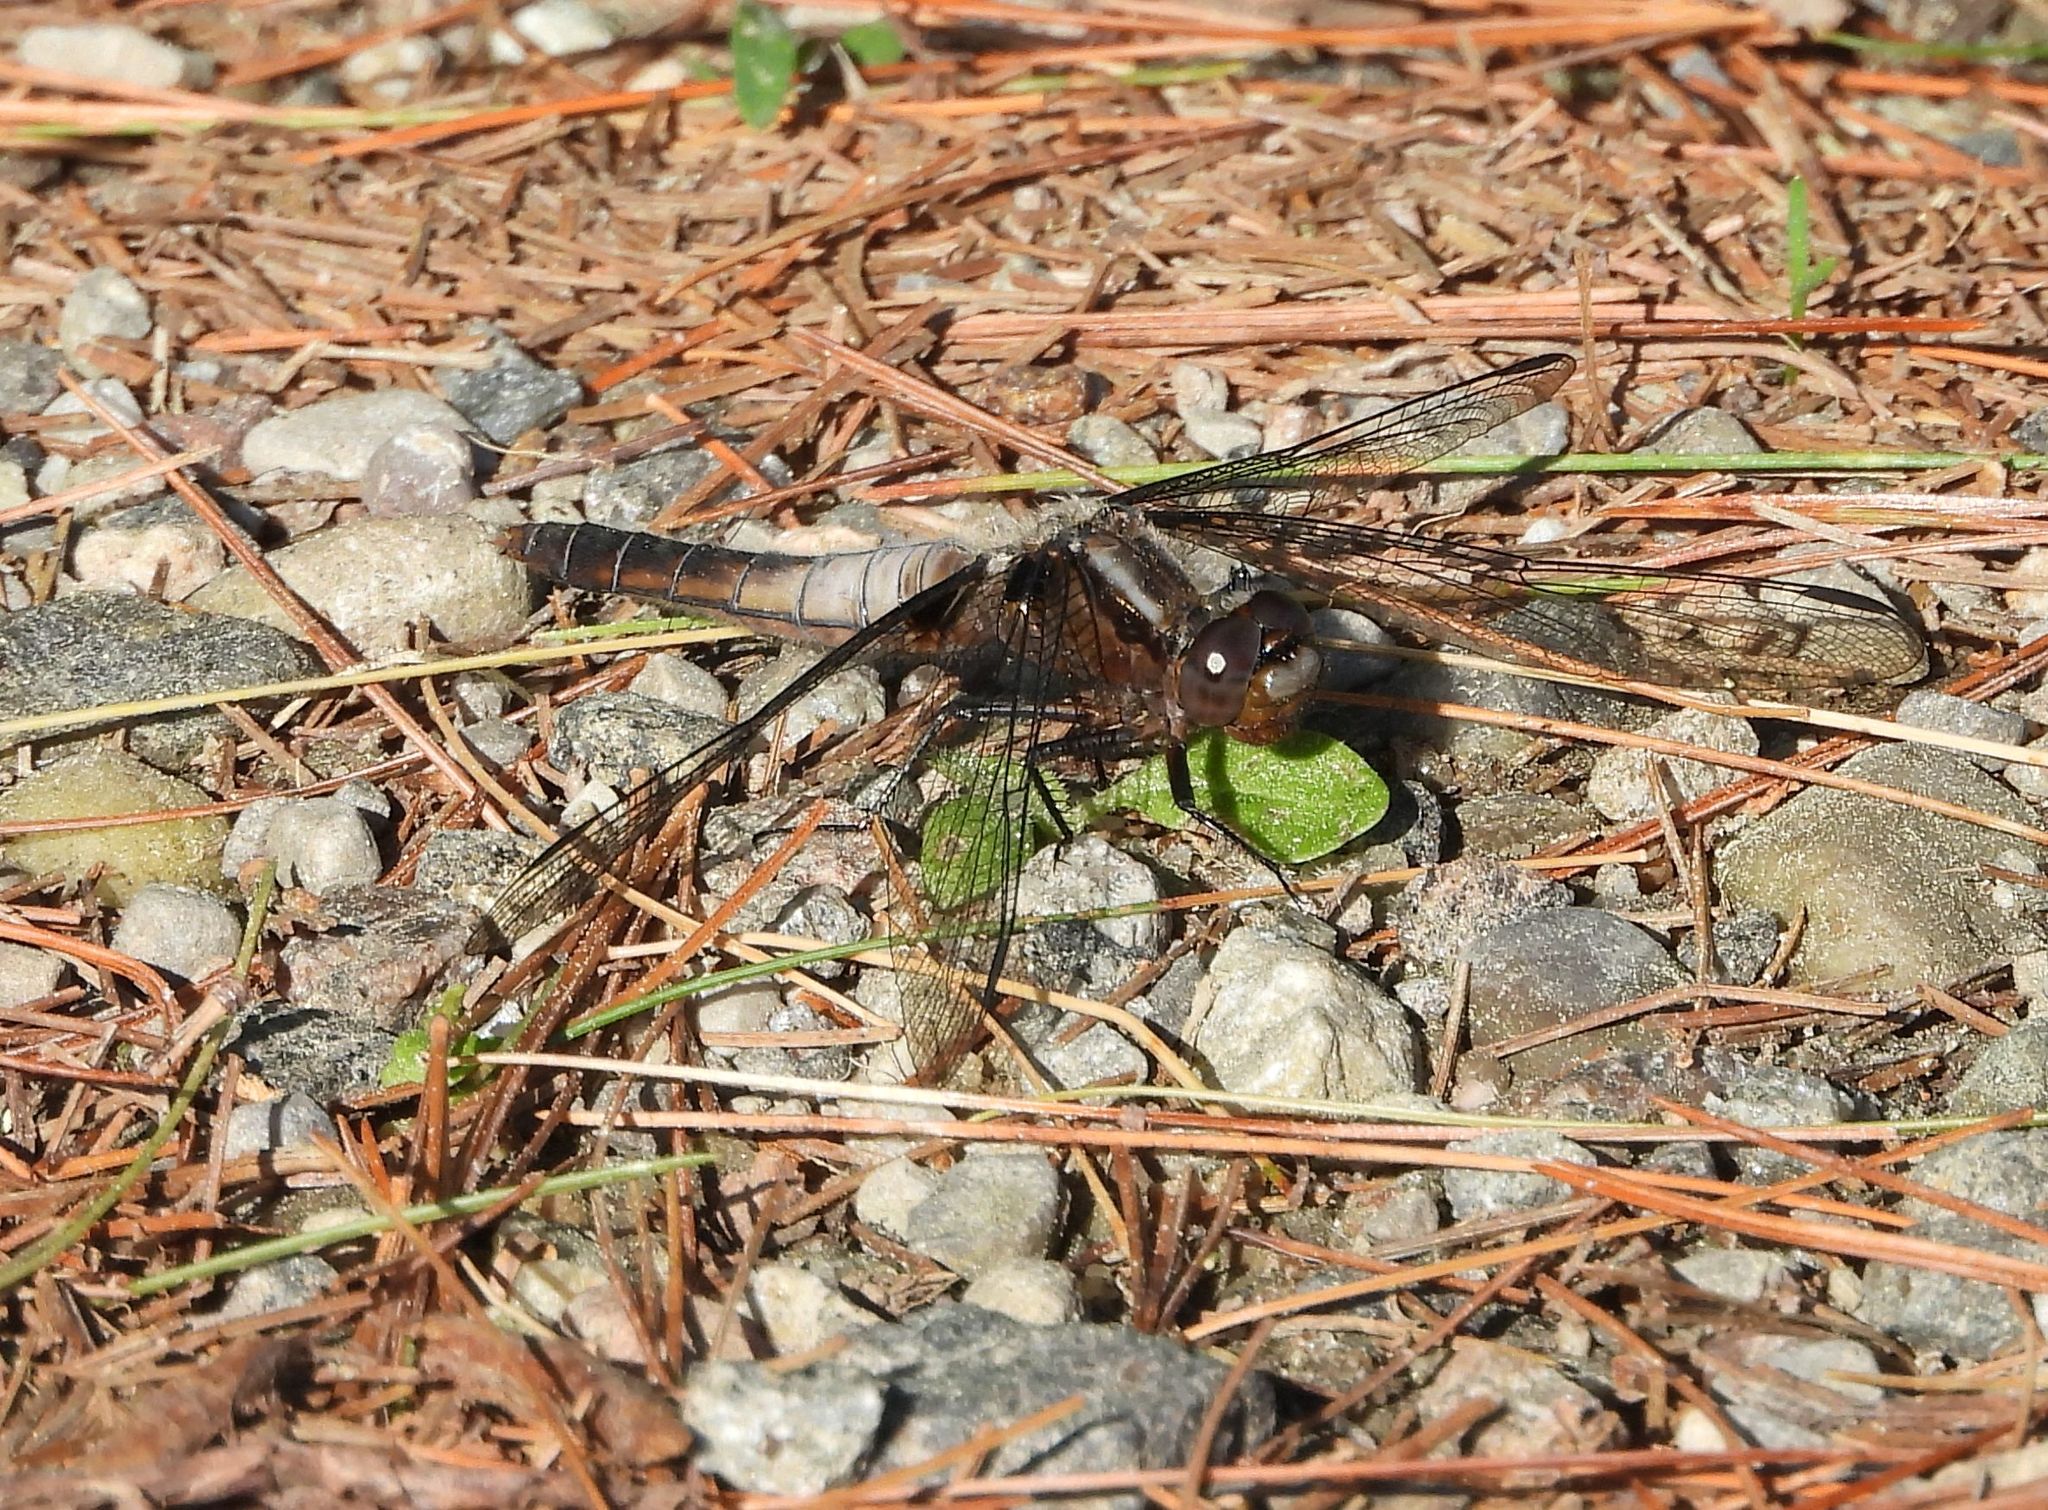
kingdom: Animalia
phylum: Arthropoda
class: Insecta
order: Odonata
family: Libellulidae
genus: Ladona
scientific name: Ladona julia
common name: Chalk-fronted corporal
